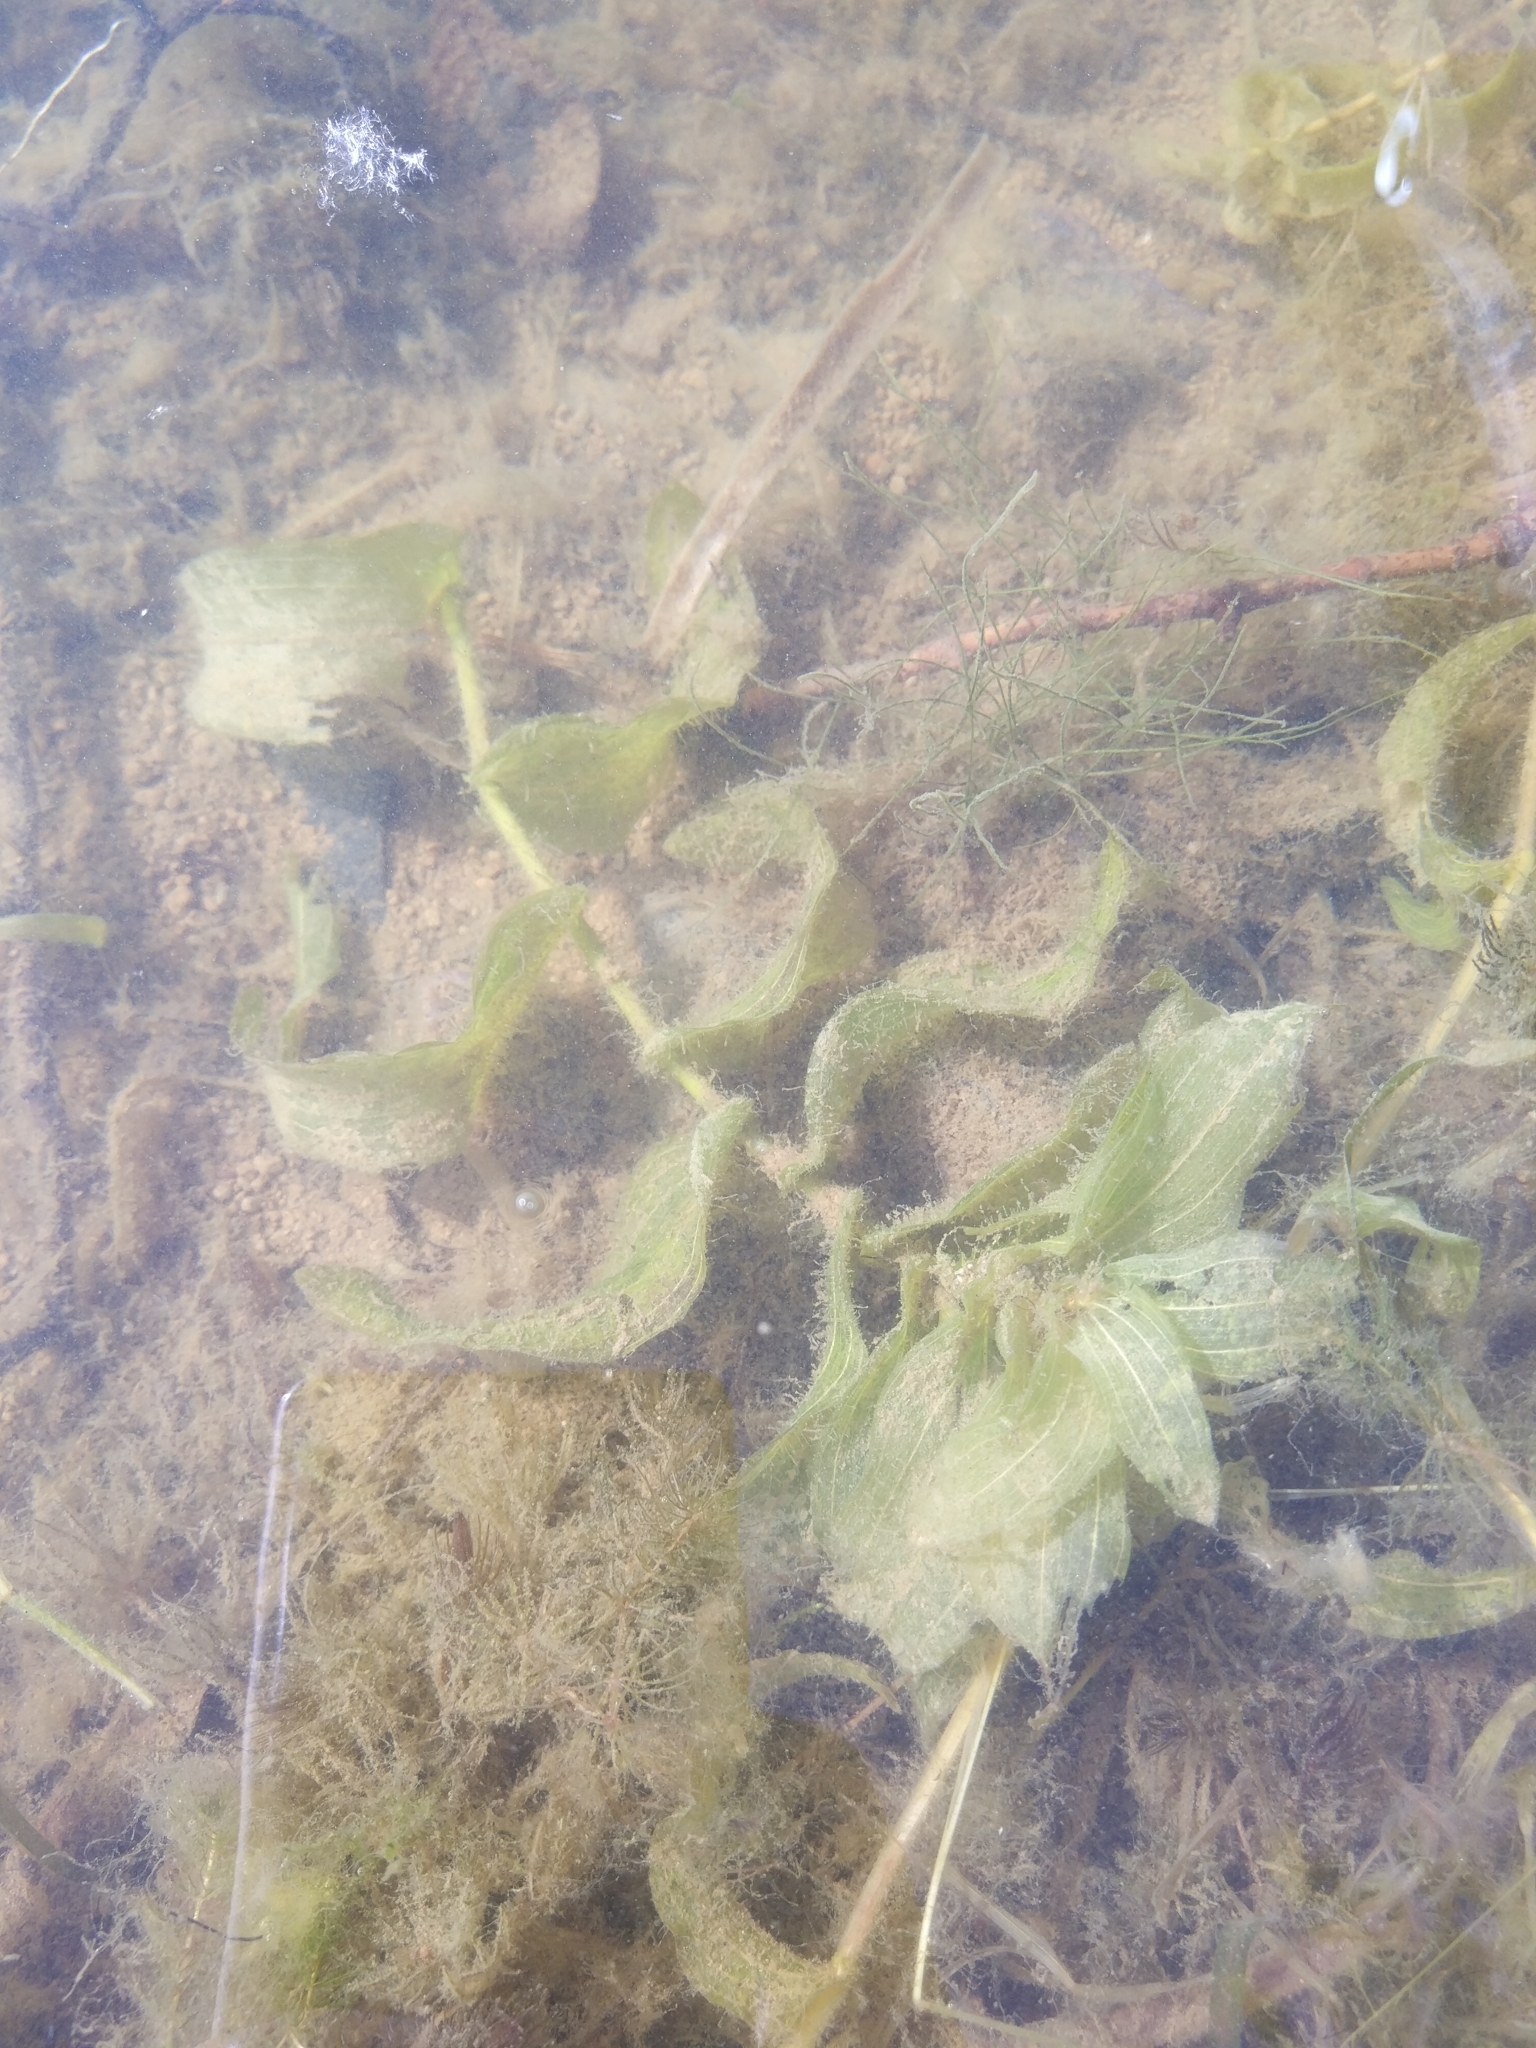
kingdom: Plantae
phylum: Tracheophyta
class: Liliopsida
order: Alismatales
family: Potamogetonaceae
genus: Potamogeton
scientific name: Potamogeton perfoliatus
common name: Perfoliate pondweed
